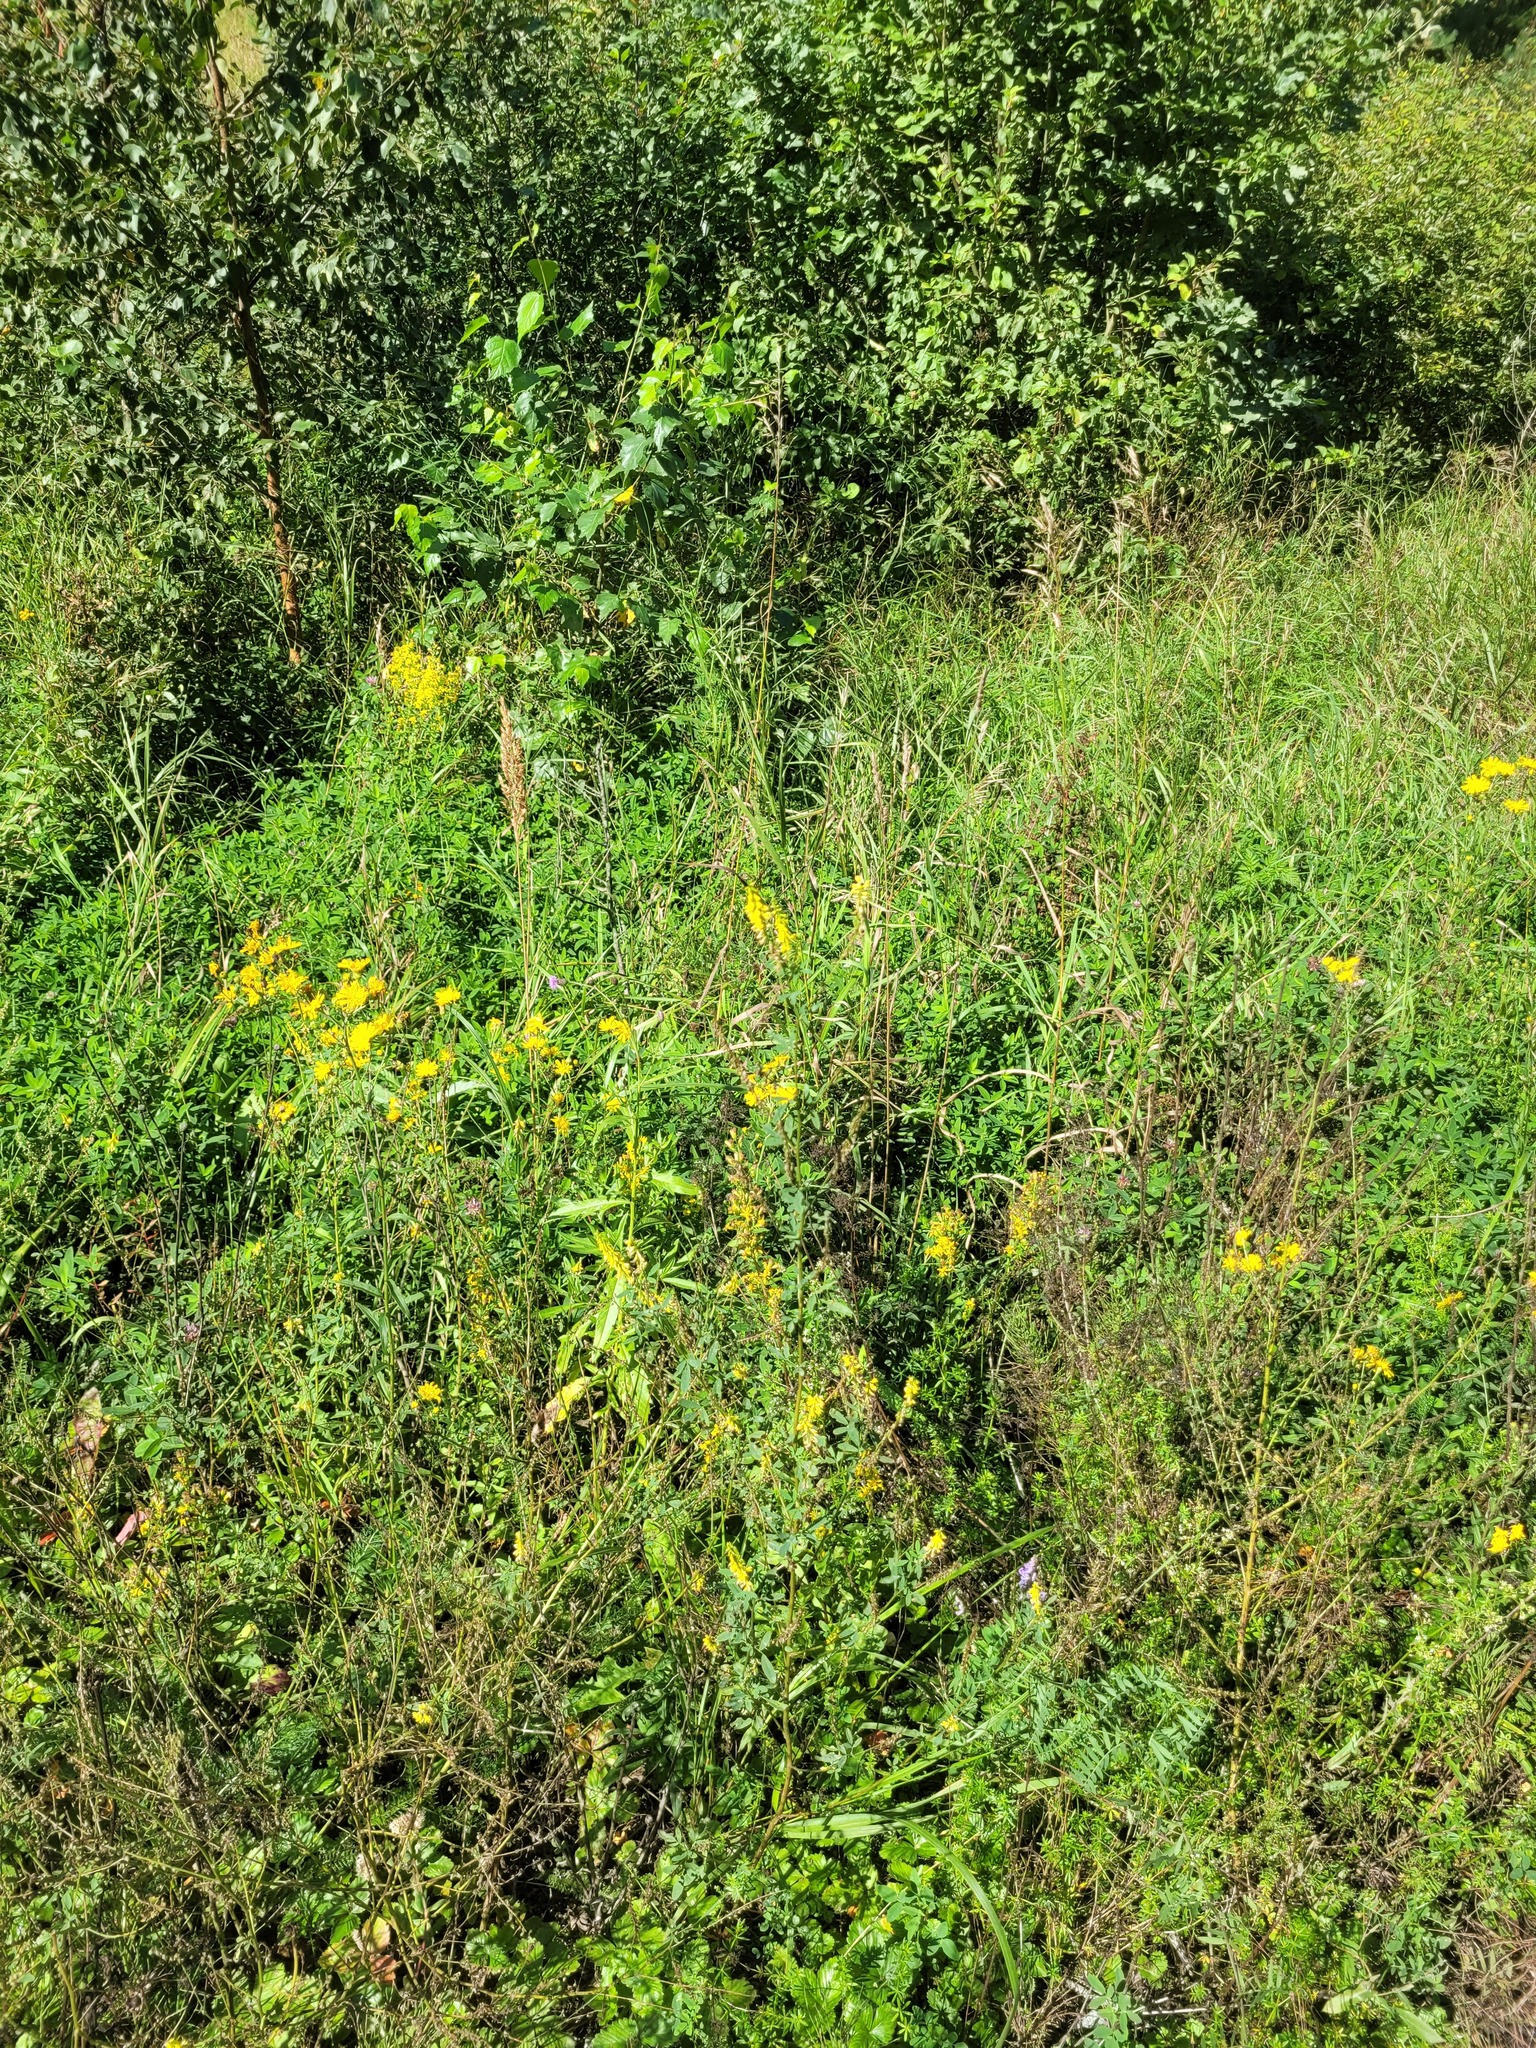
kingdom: Plantae
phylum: Tracheophyta
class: Magnoliopsida
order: Fabales
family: Fabaceae
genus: Melilotus
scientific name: Melilotus officinalis
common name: Sweetclover
